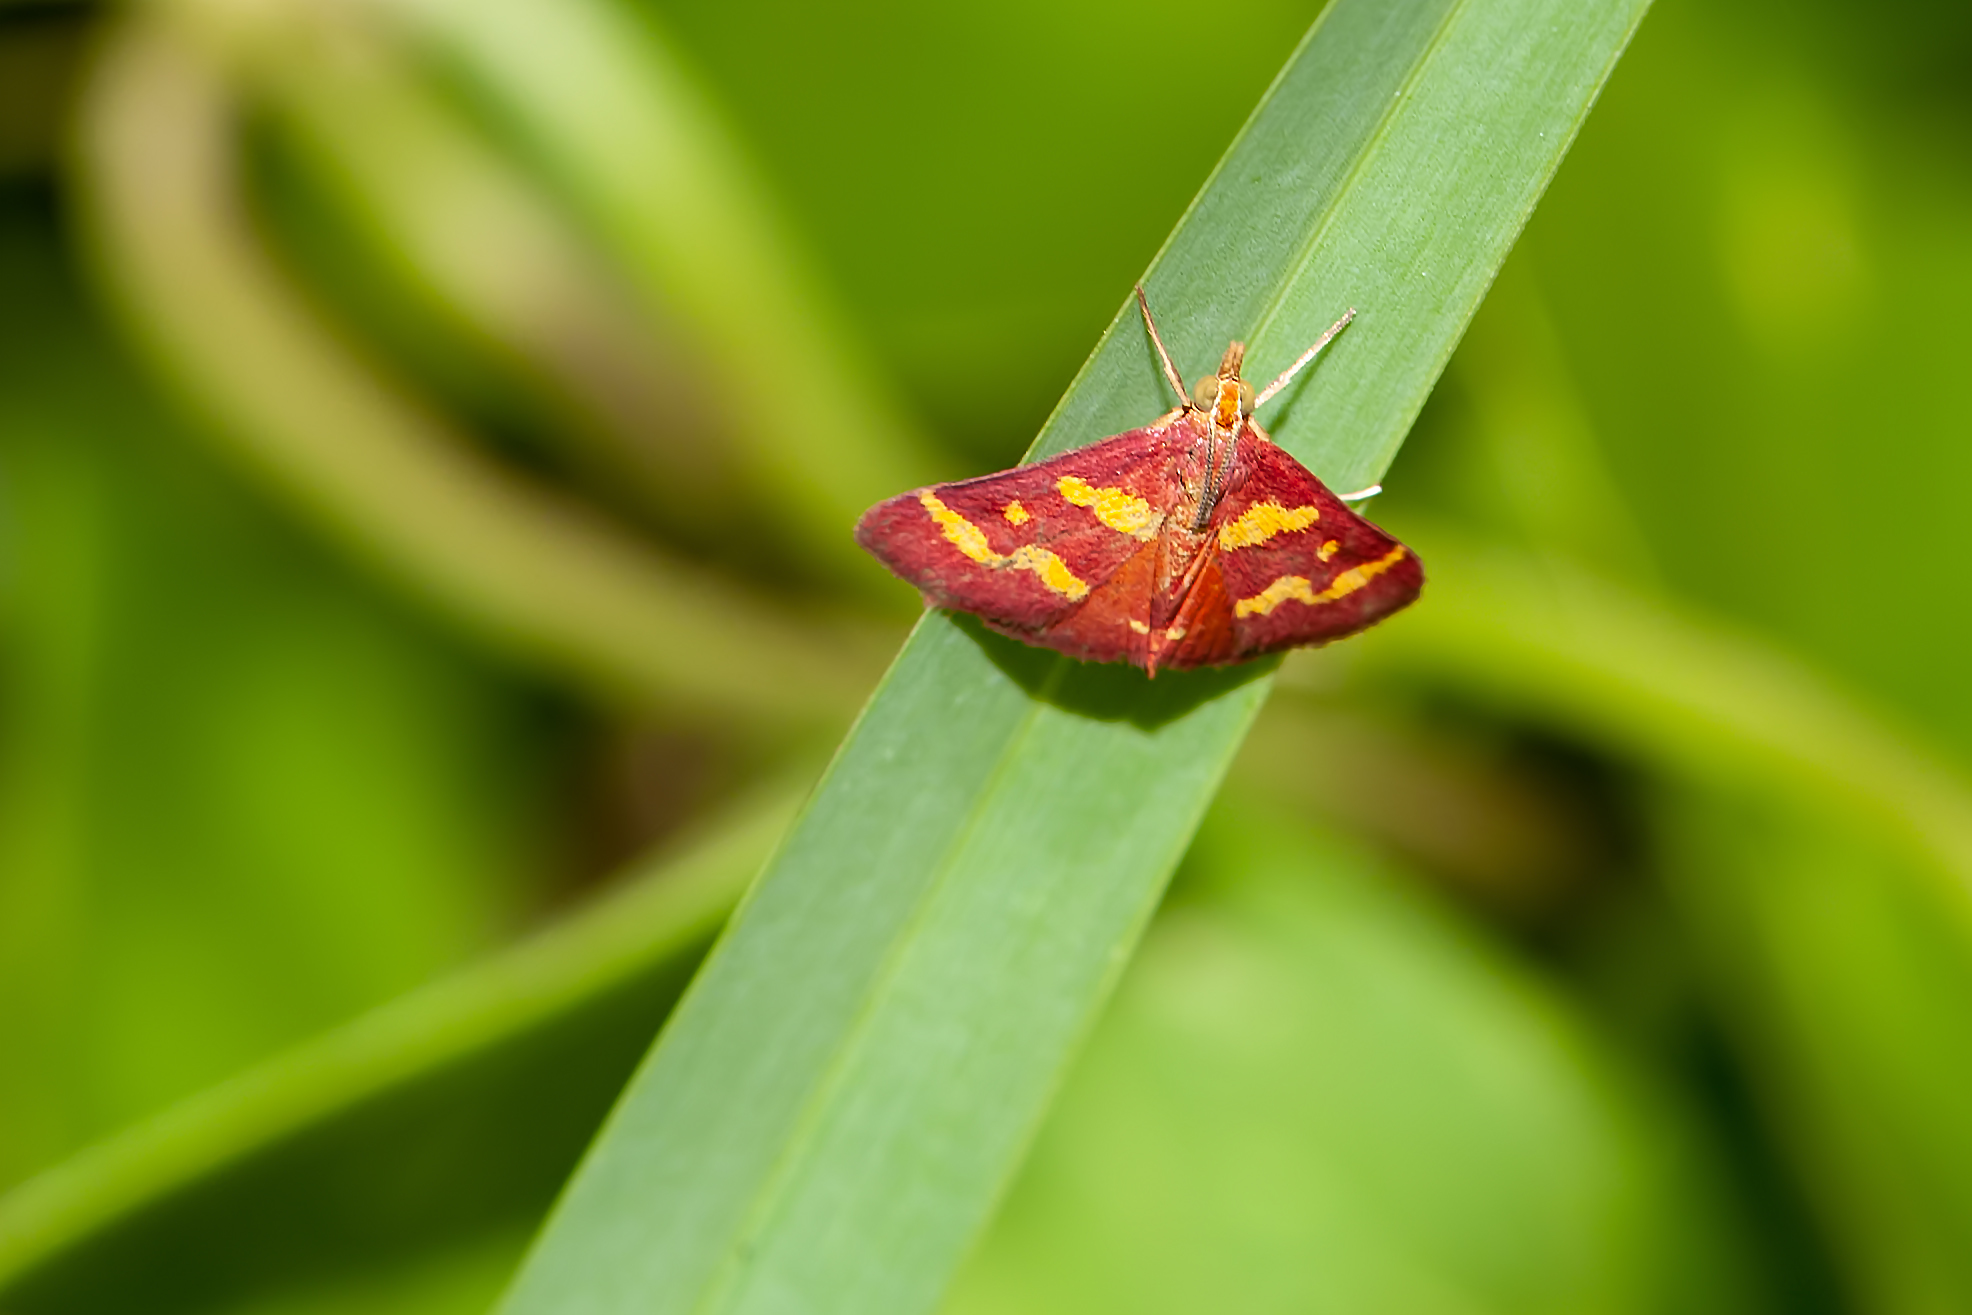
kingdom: Animalia
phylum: Arthropoda
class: Insecta
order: Lepidoptera
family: Crambidae
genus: Pyrausta
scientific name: Pyrausta tyralis
